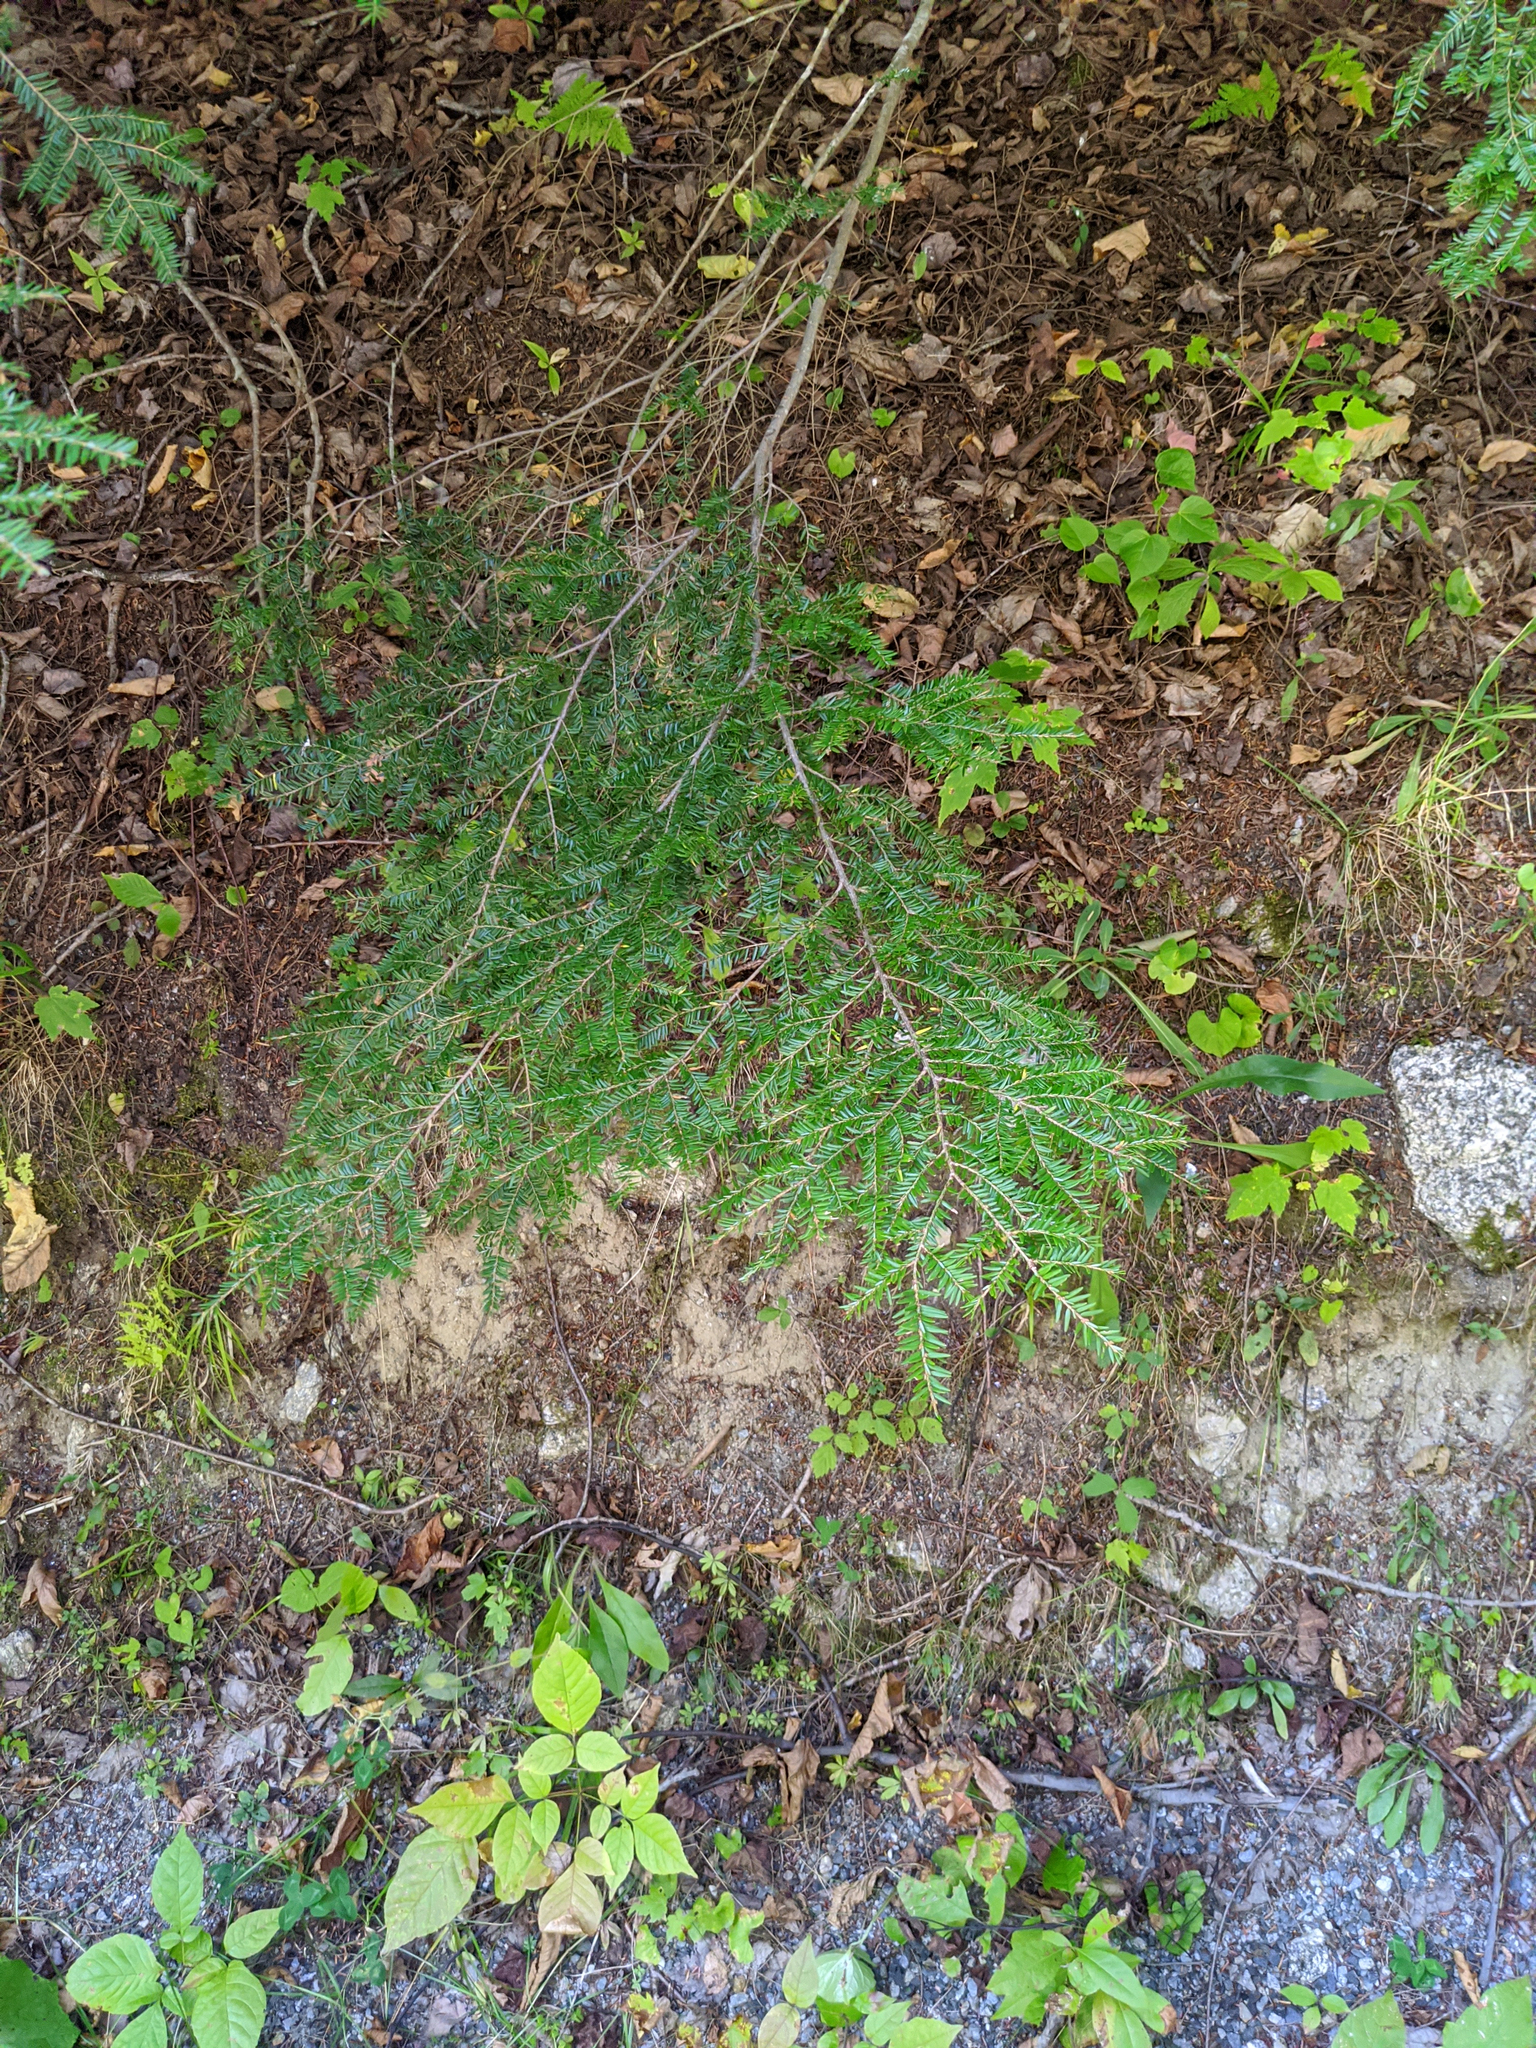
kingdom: Plantae
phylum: Tracheophyta
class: Pinopsida
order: Pinales
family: Pinaceae
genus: Tsuga
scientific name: Tsuga canadensis
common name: Eastern hemlock
